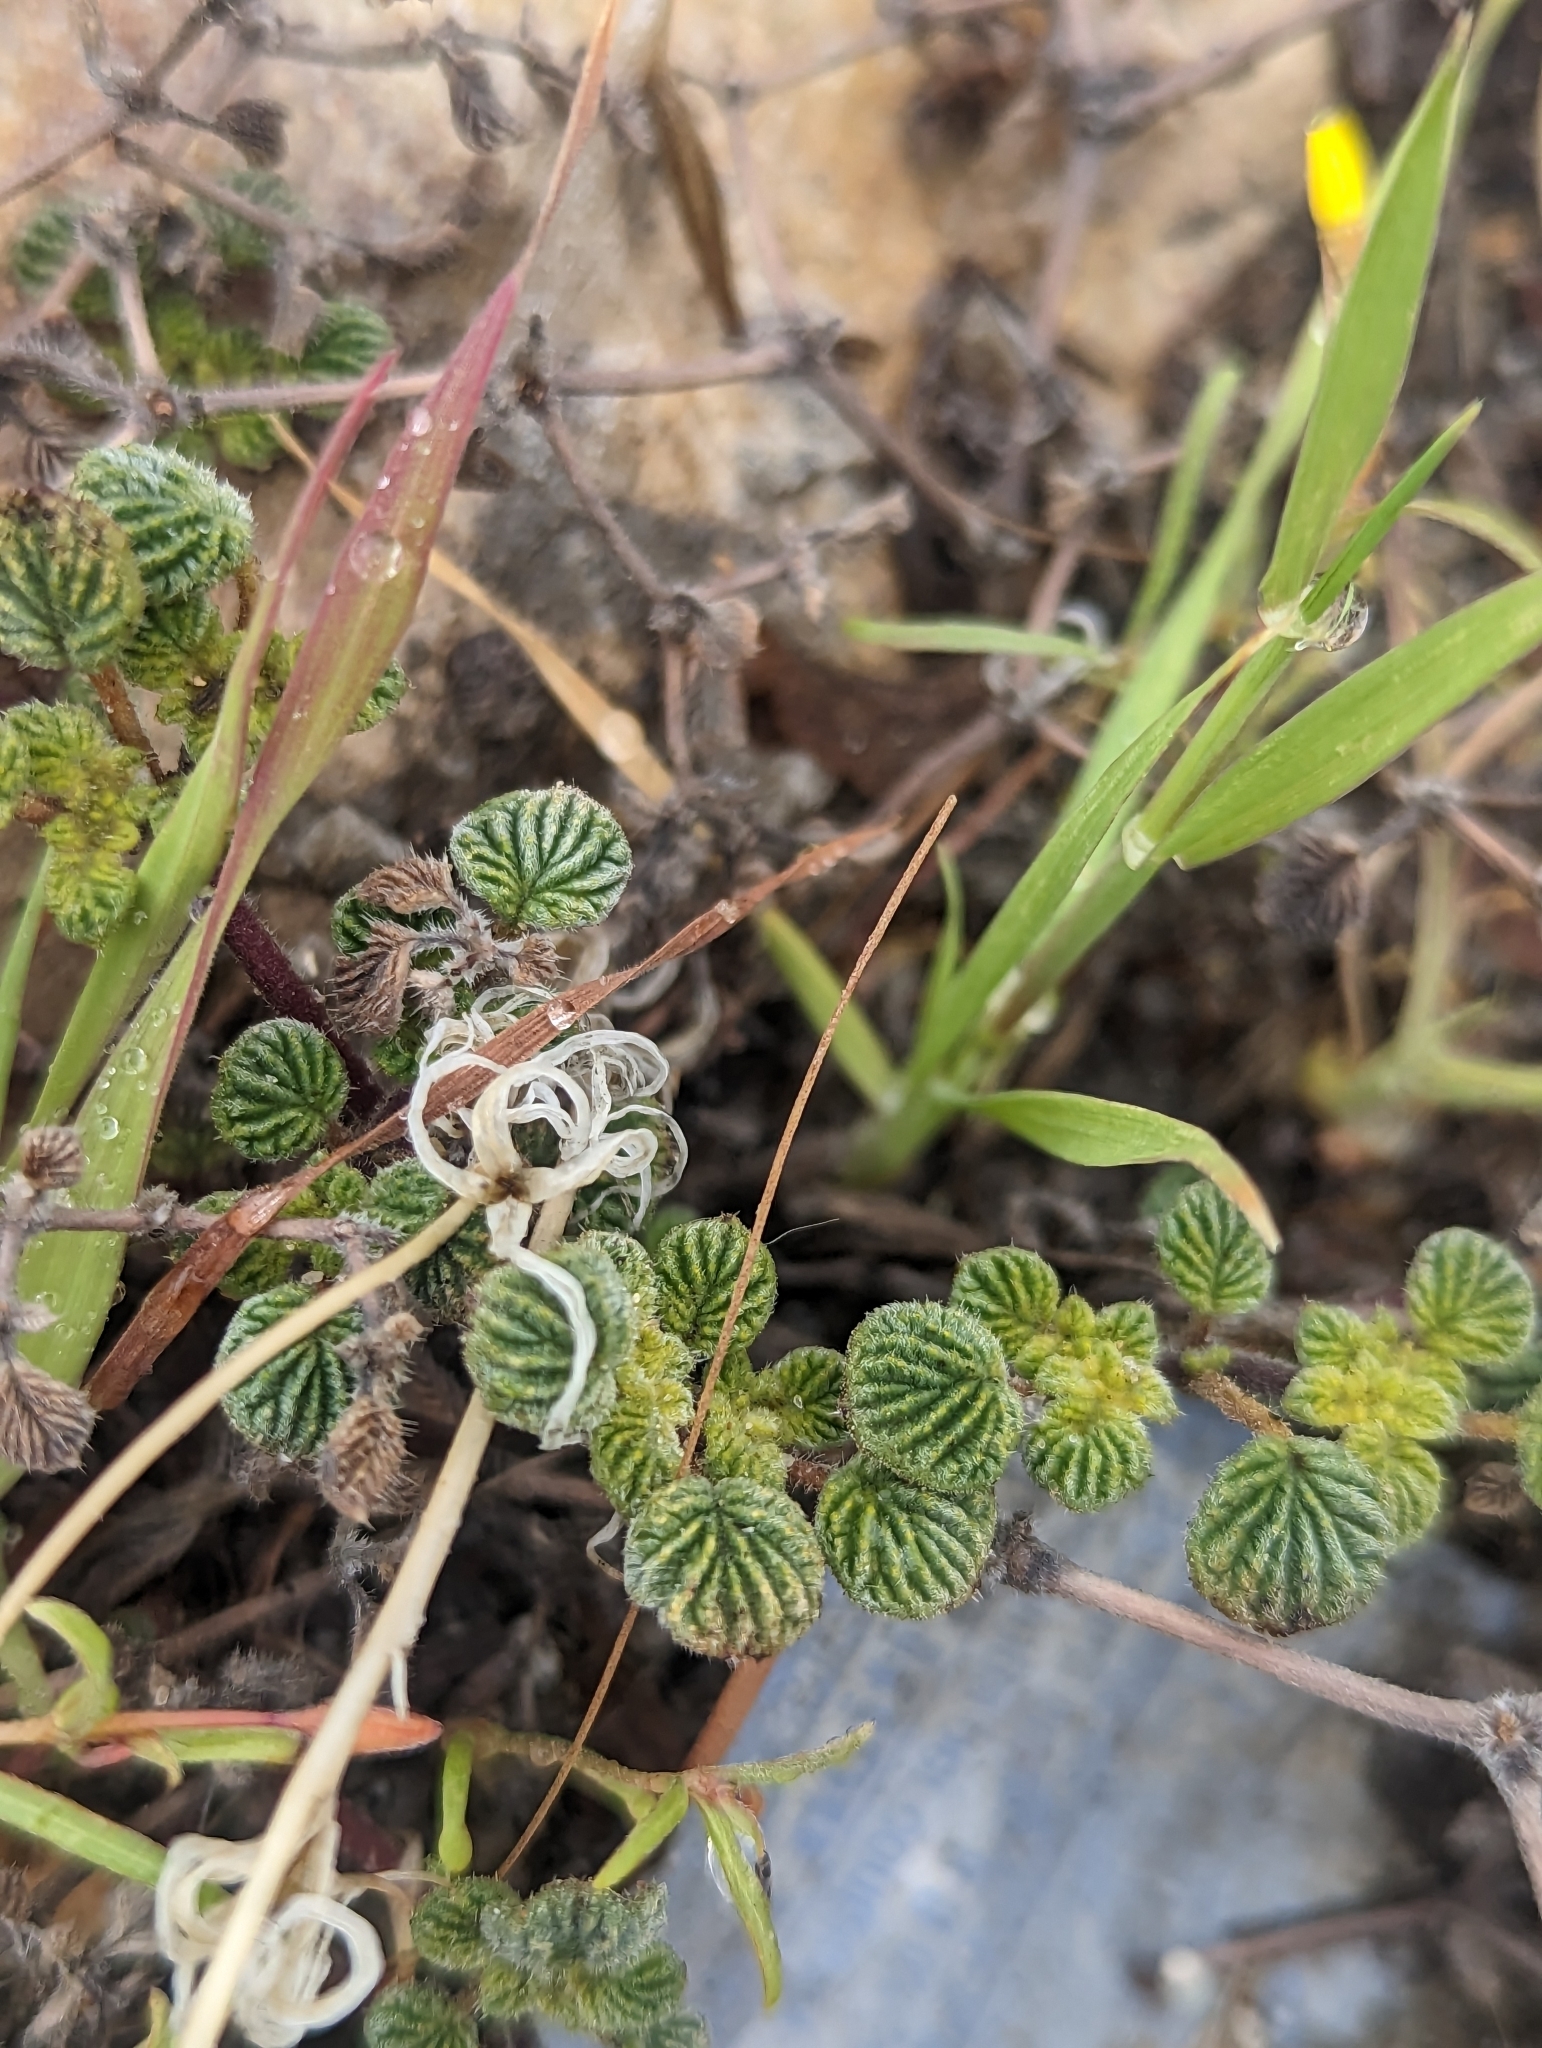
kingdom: Plantae
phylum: Tracheophyta
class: Magnoliopsida
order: Boraginales
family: Ehretiaceae
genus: Tiquilia
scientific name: Tiquilia plicata
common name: Fan-leaf tiquilia
